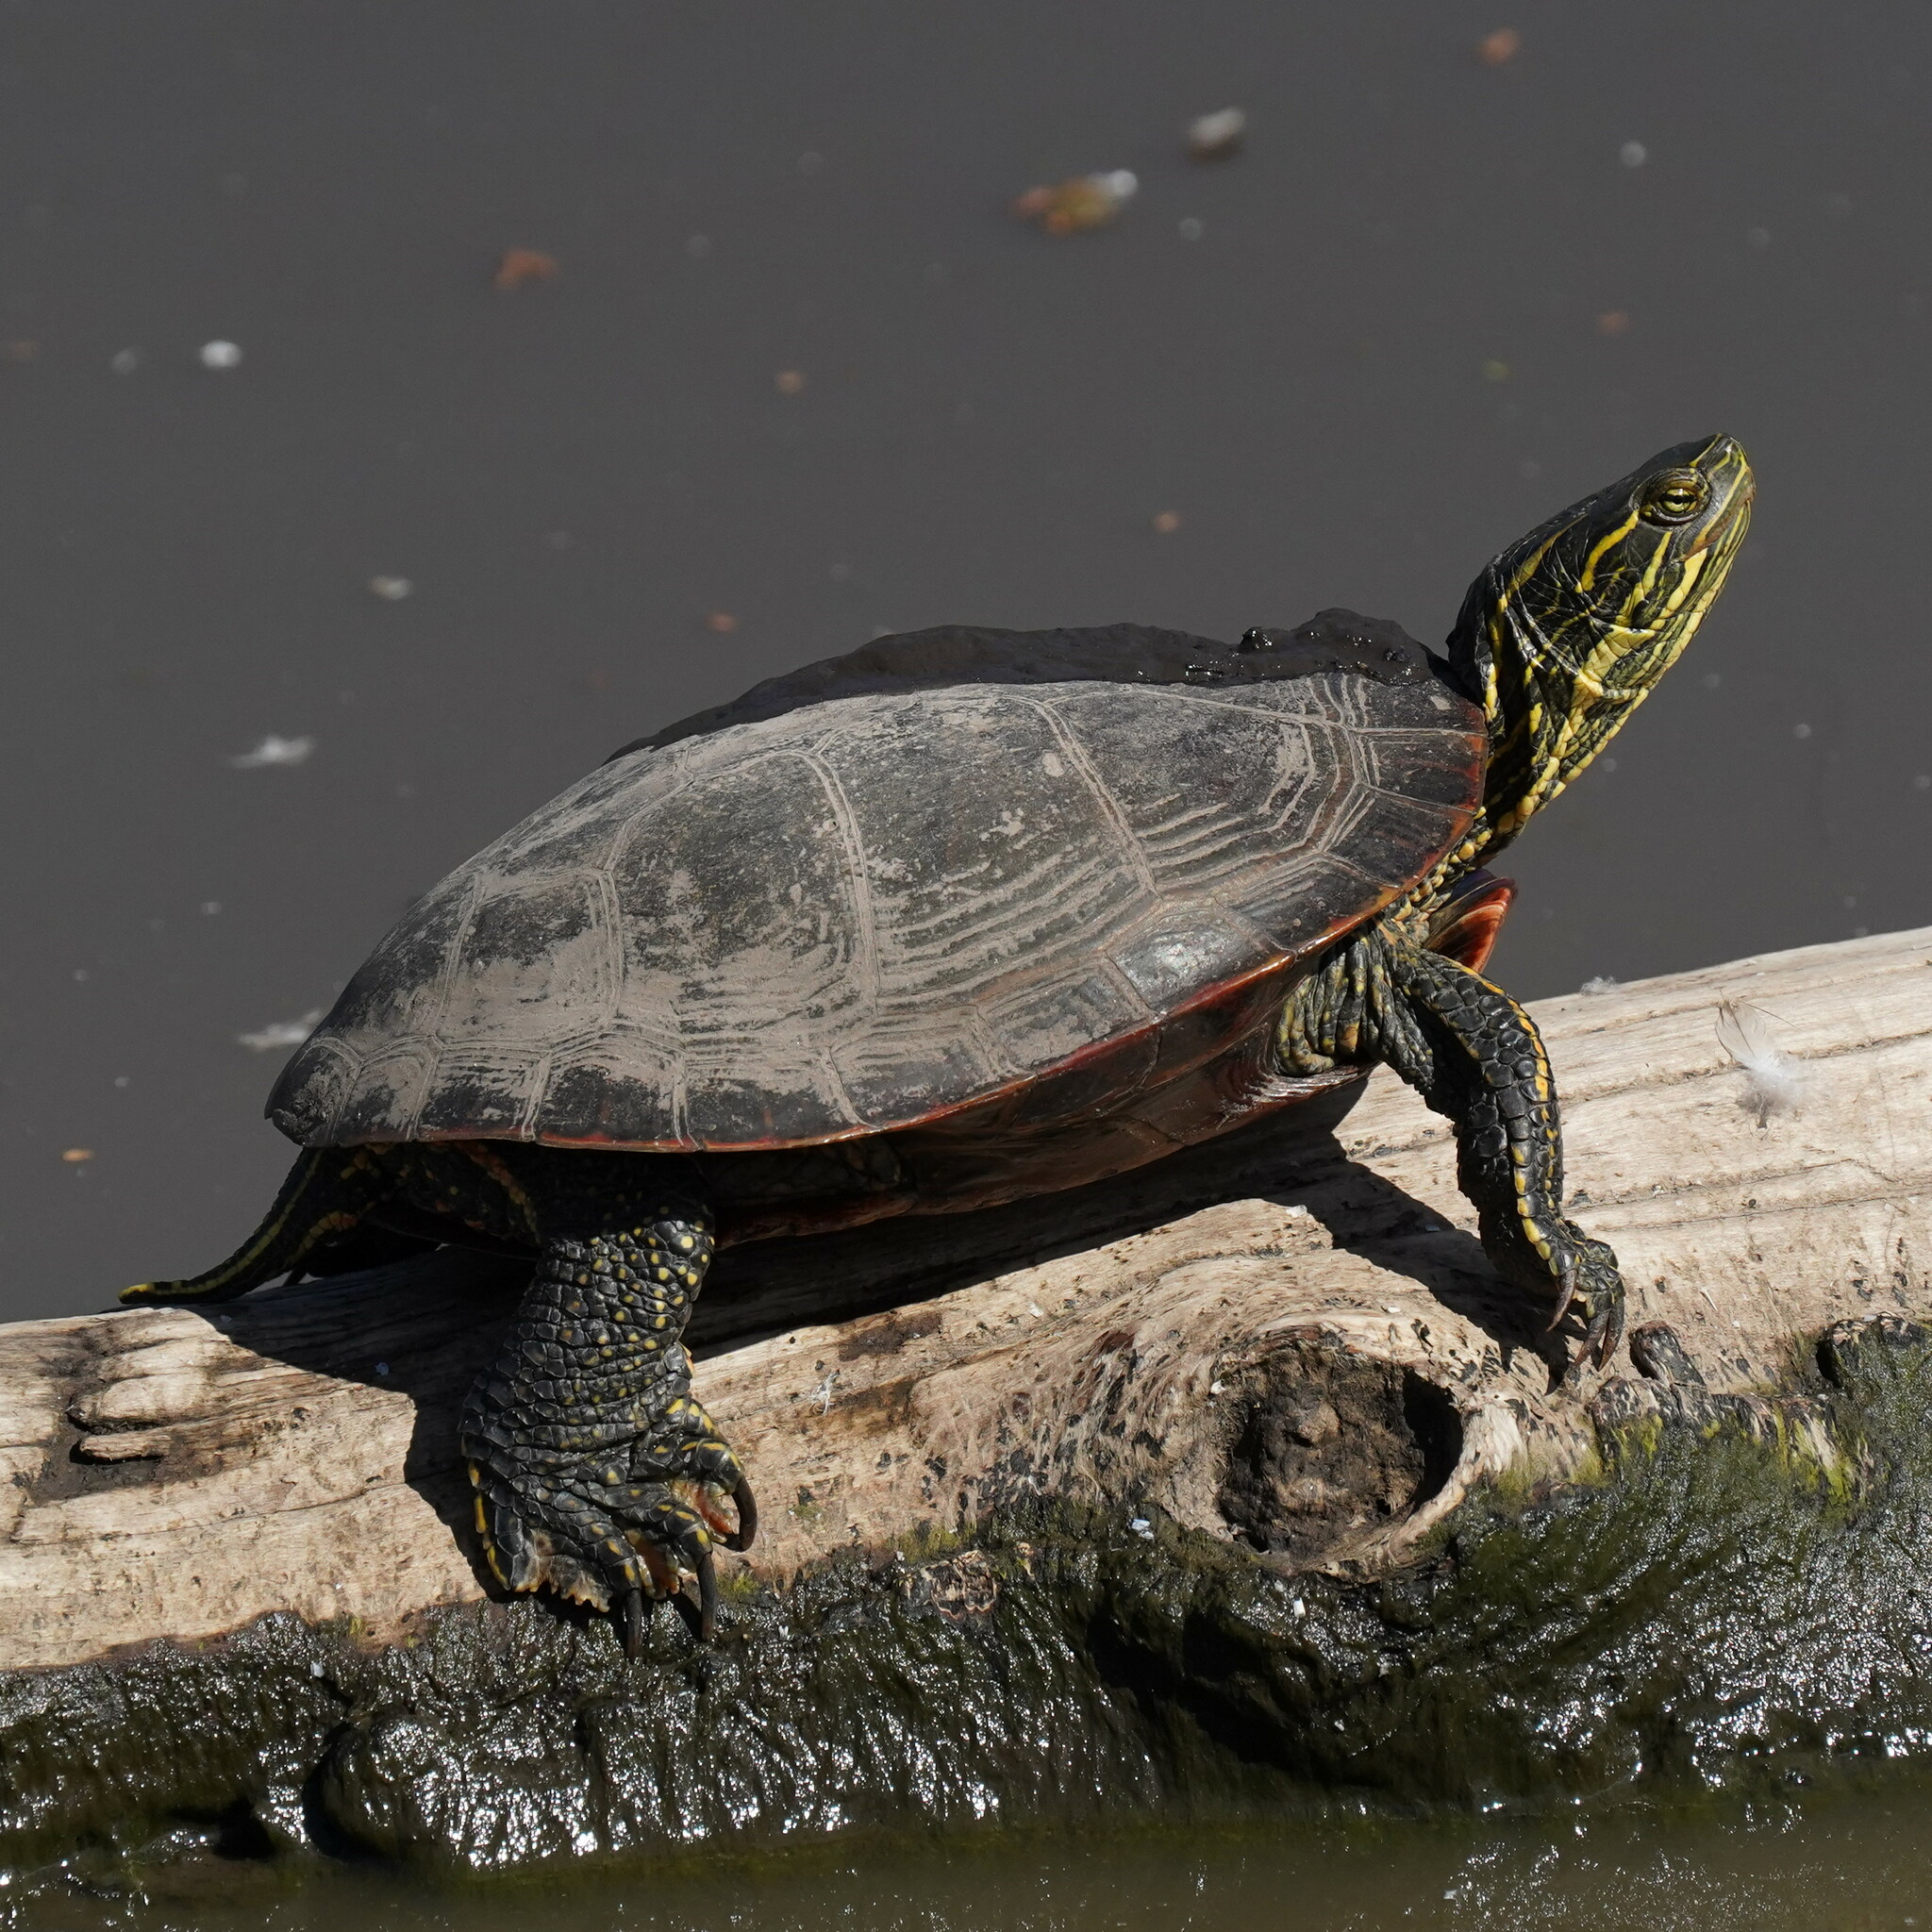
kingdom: Animalia
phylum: Chordata
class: Testudines
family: Emydidae
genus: Chrysemys
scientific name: Chrysemys picta
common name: Painted turtle
